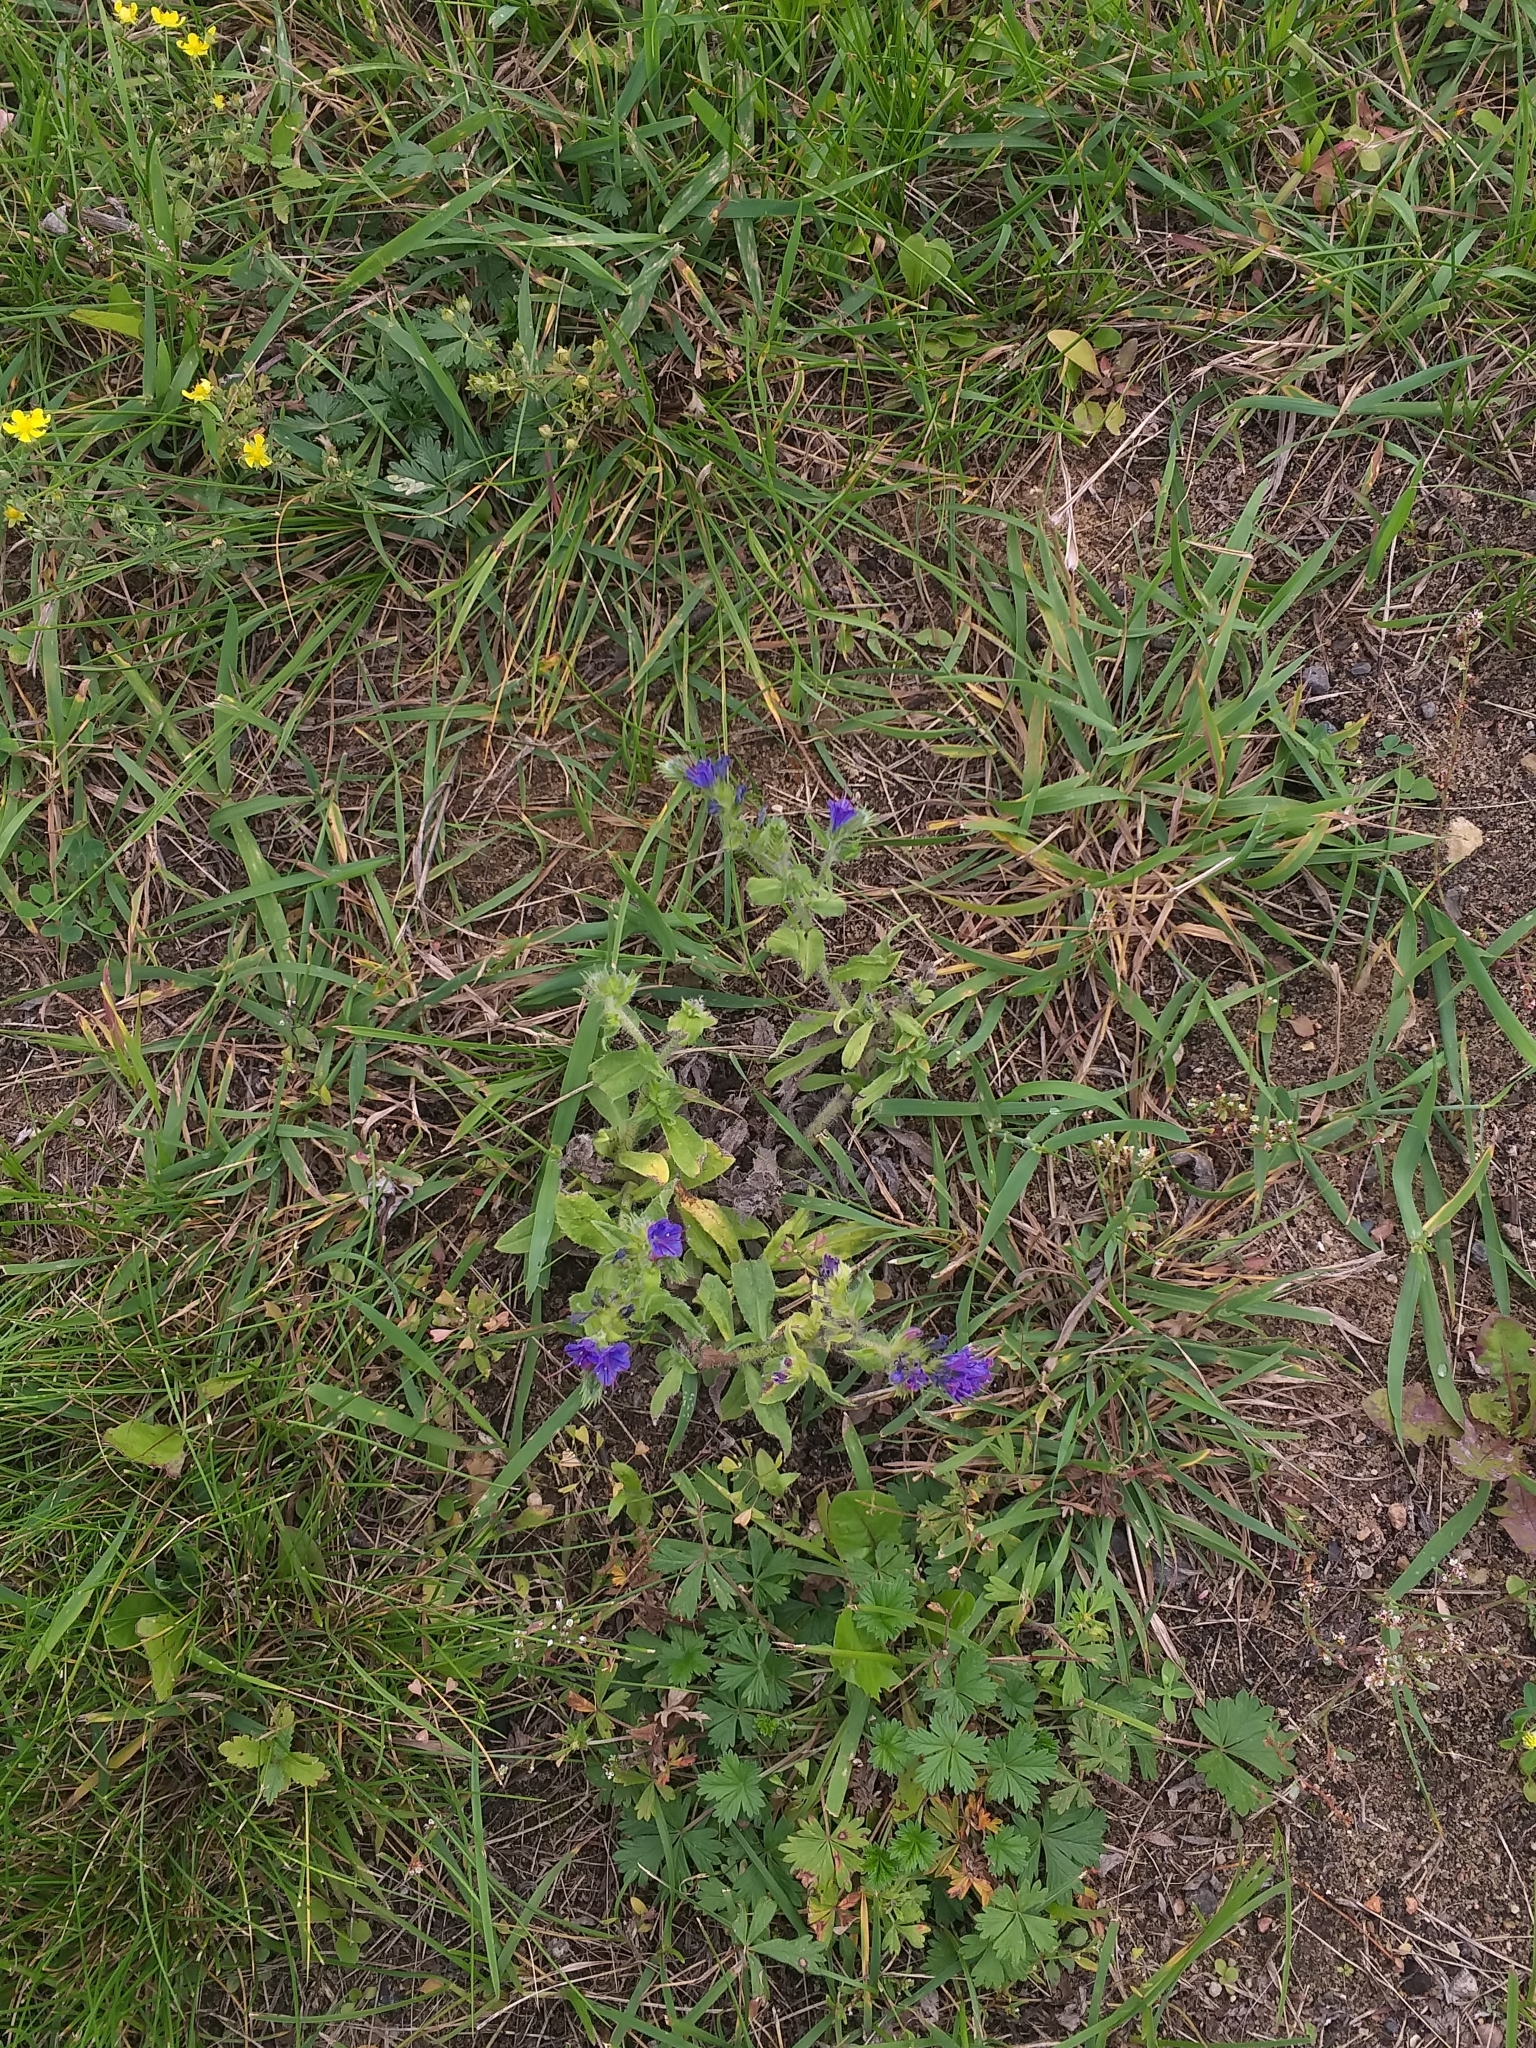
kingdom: Plantae
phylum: Tracheophyta
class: Magnoliopsida
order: Boraginales
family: Boraginaceae
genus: Echium
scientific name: Echium vulgare
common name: Common viper's bugloss
